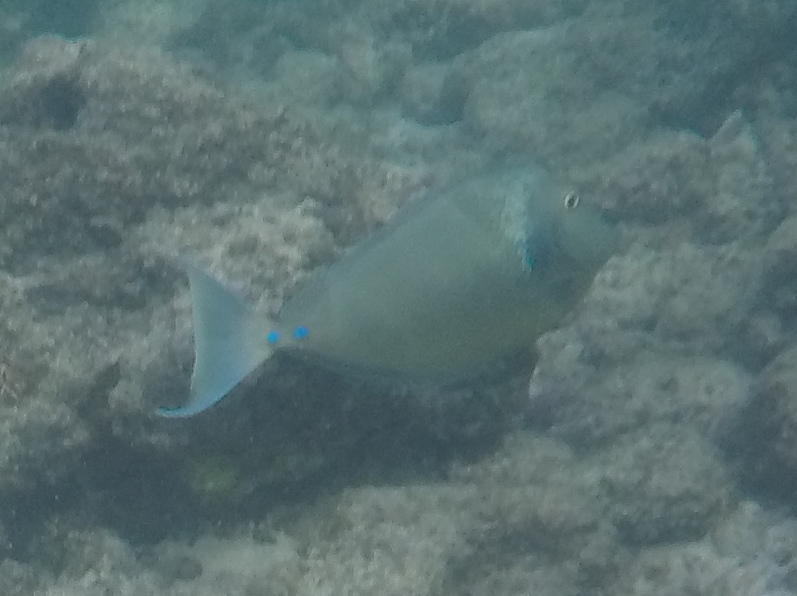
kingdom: Animalia
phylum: Chordata
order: Perciformes
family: Acanthuridae
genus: Naso
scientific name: Naso unicornis
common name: Bluespine unicornfish
